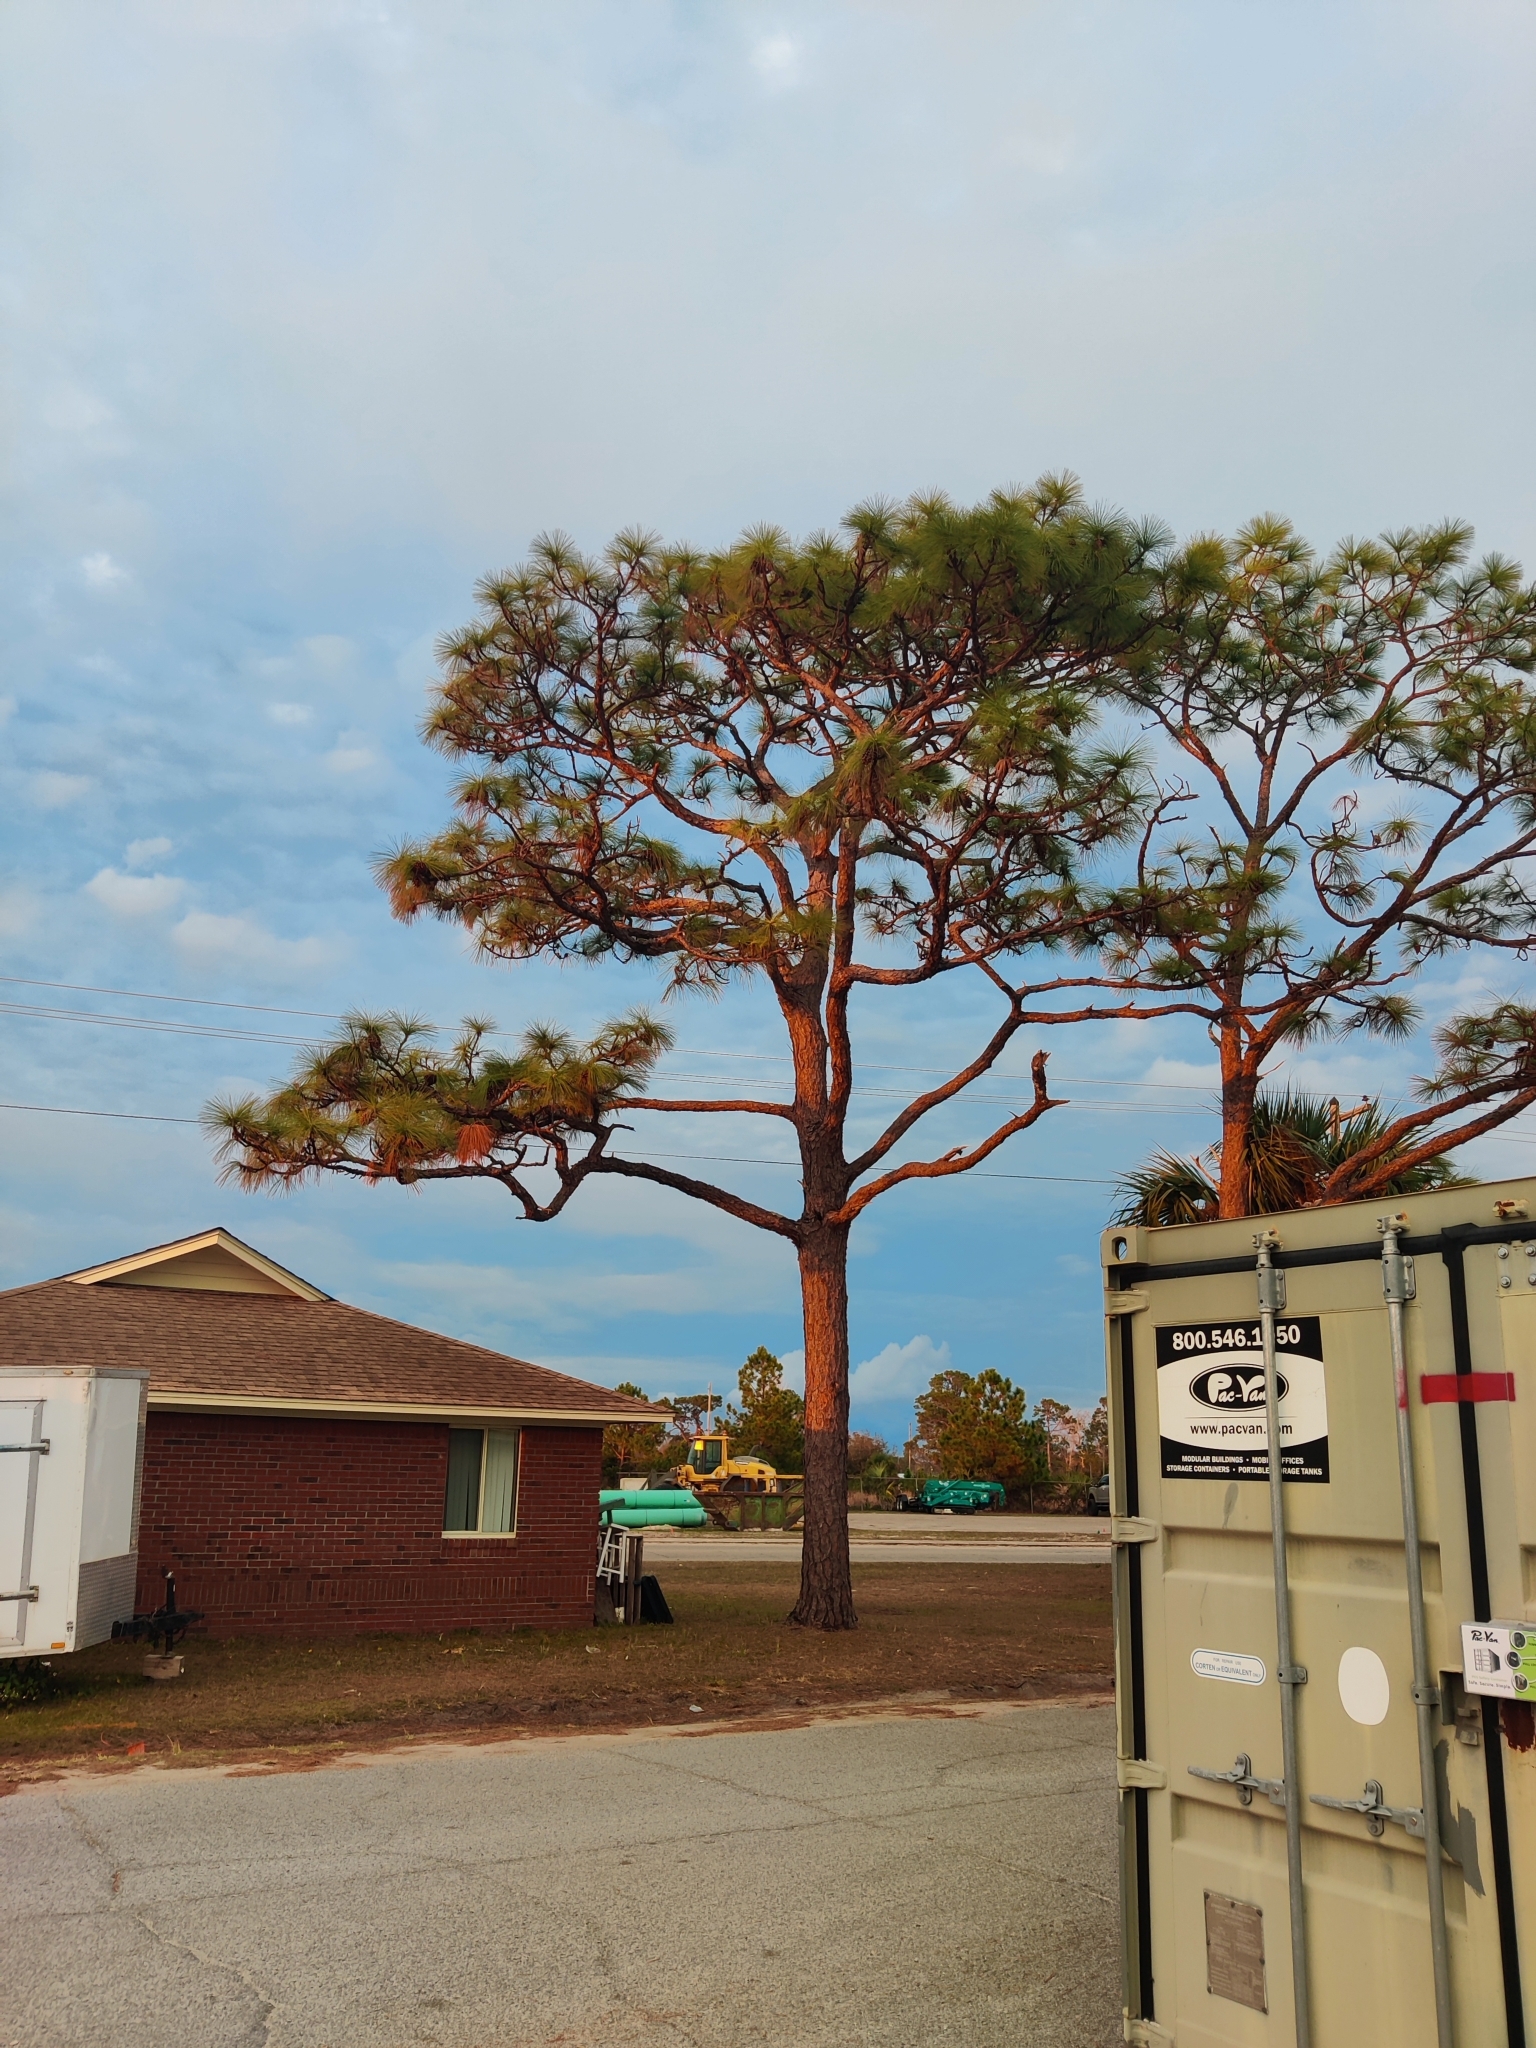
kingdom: Plantae
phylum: Tracheophyta
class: Pinopsida
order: Pinales
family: Pinaceae
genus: Pinus
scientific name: Pinus palustris
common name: Longleaf pine
